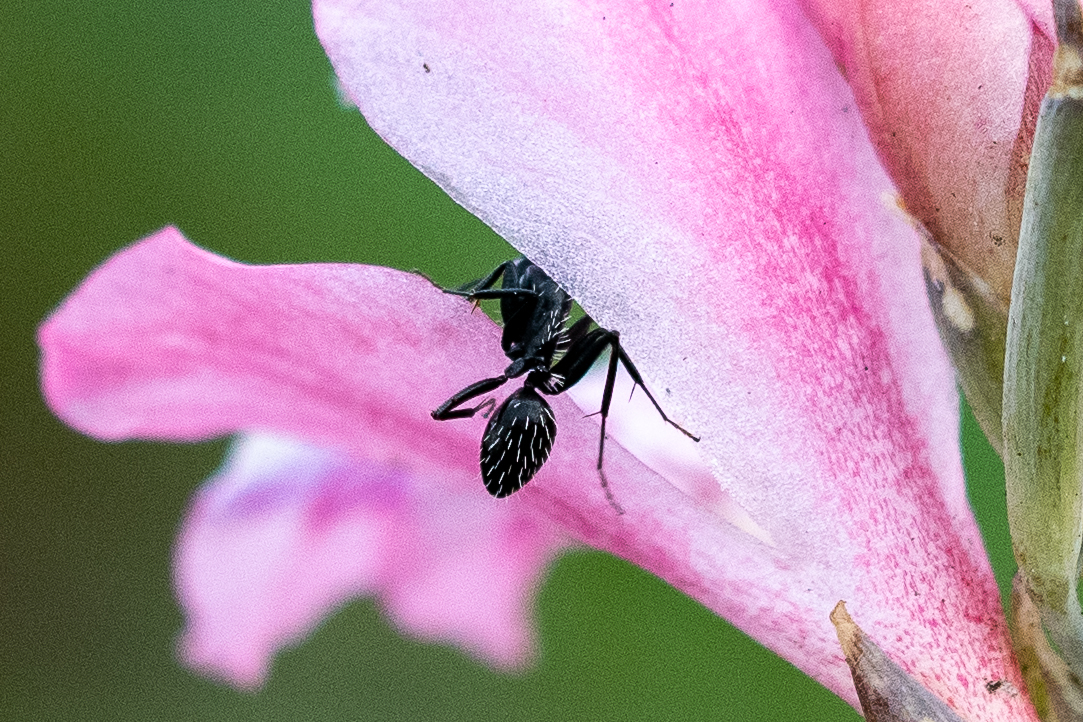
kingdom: Animalia
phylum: Arthropoda
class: Insecta
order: Hymenoptera
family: Formicidae
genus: Camponotus
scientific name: Camponotus niveosetosus
